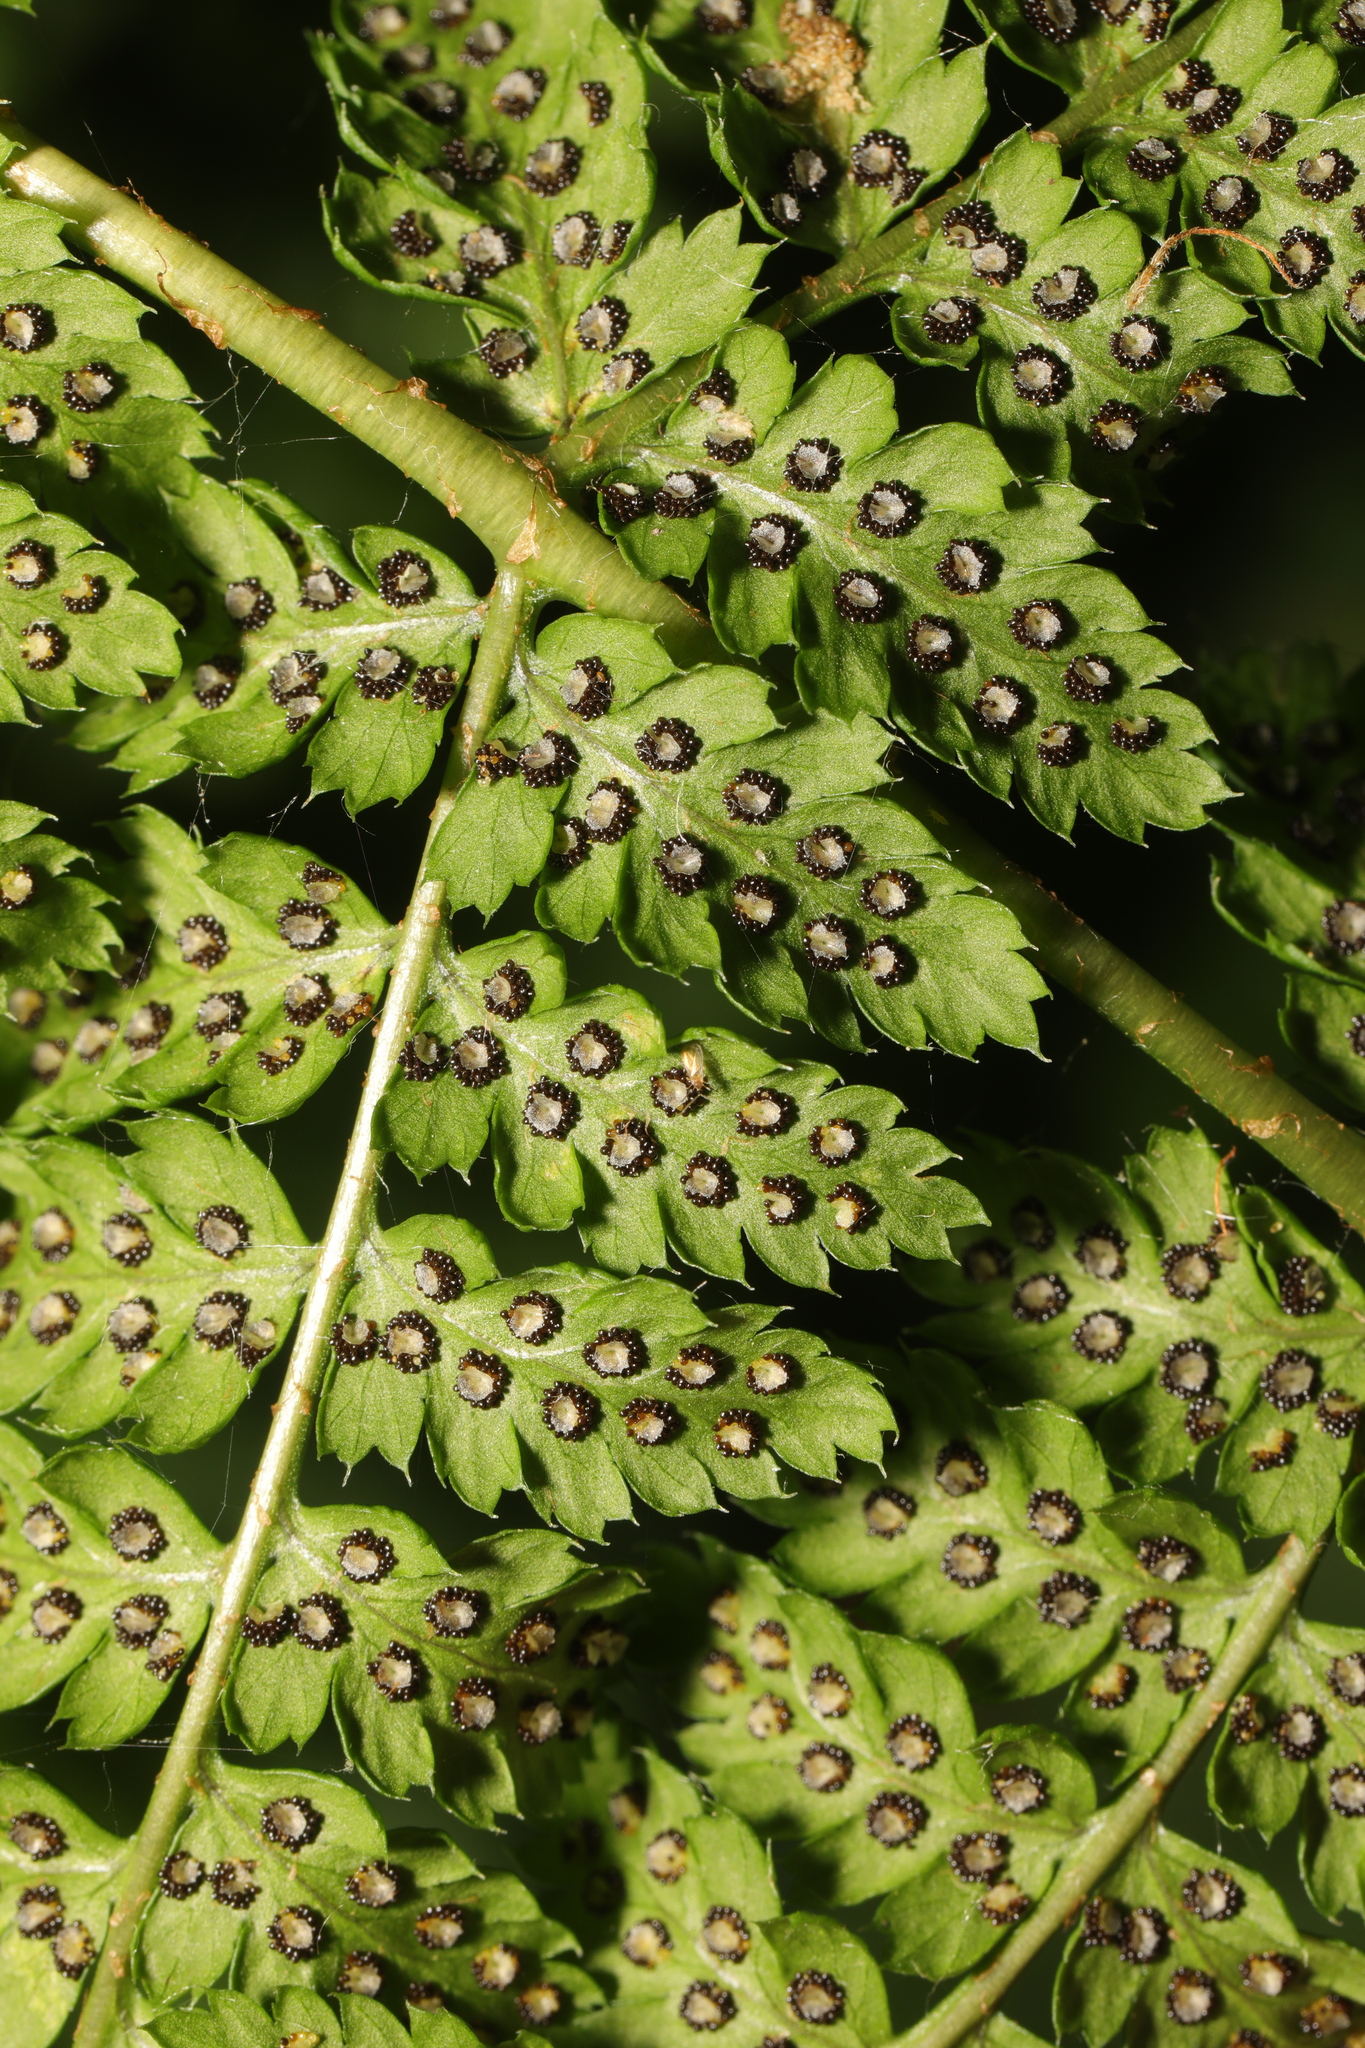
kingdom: Plantae
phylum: Tracheophyta
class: Polypodiopsida
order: Polypodiales
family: Dryopteridaceae
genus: Dryopteris
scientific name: Dryopteris dilatata
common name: Broad buckler-fern
